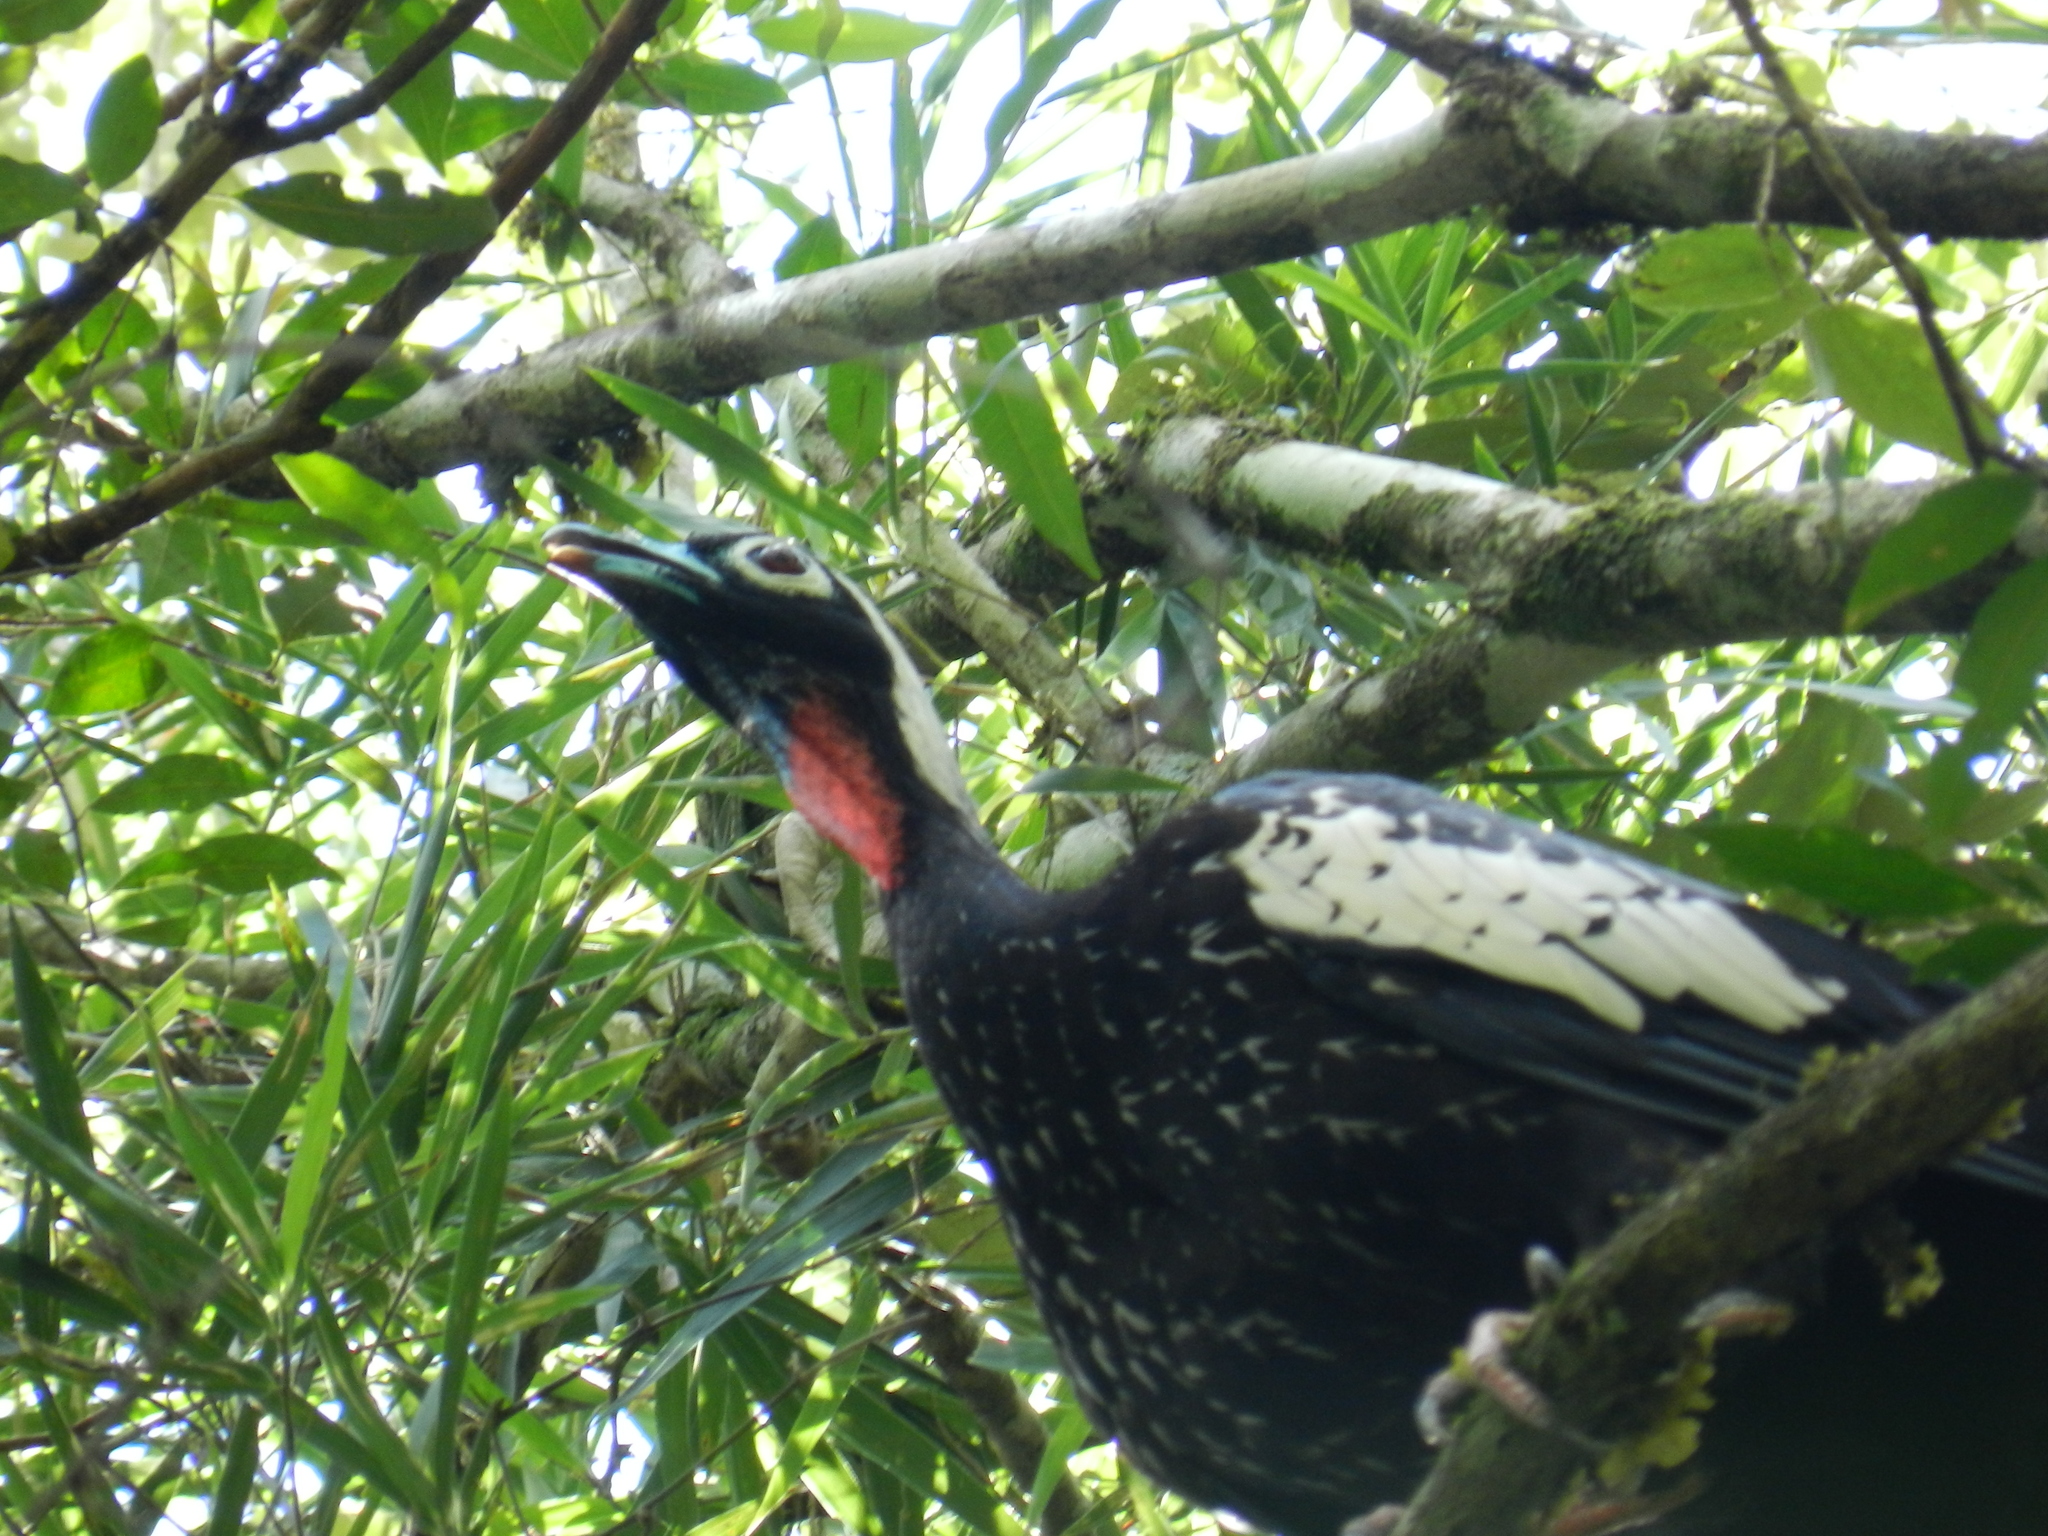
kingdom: Animalia
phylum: Chordata
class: Aves
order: Galliformes
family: Cracidae
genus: Pipile
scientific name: Pipile jacutinga
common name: Black-fronted piping-guan
